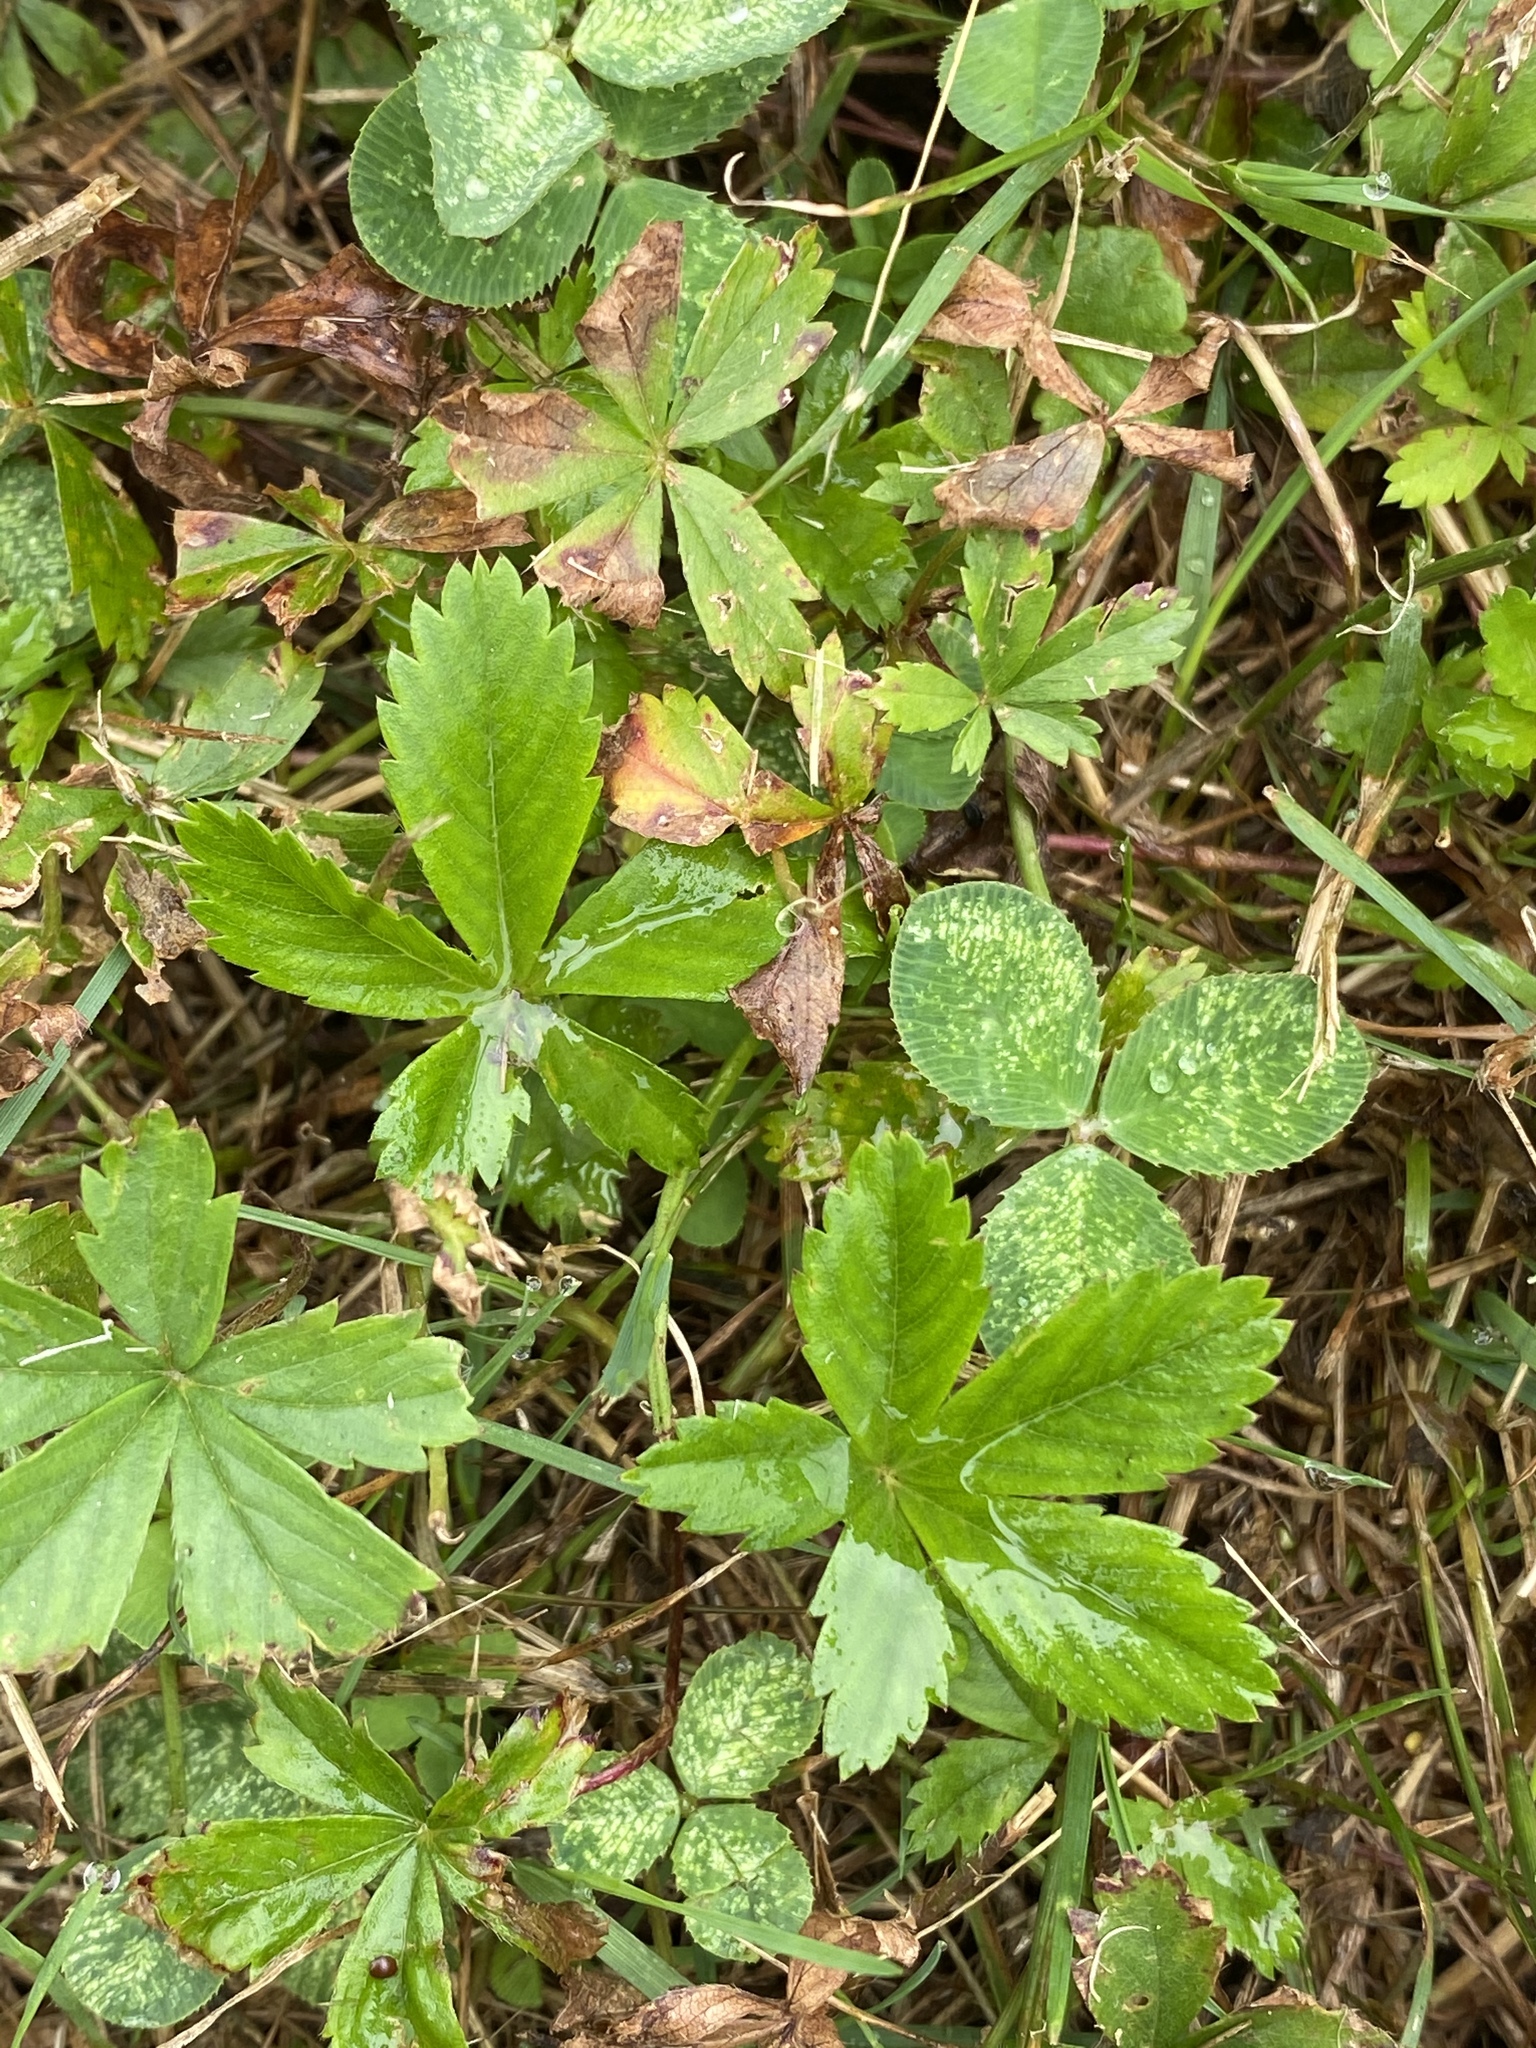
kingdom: Plantae
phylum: Tracheophyta
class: Magnoliopsida
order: Rosales
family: Rosaceae
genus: Potentilla
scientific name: Potentilla canadensis
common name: Canada cinquefoil
